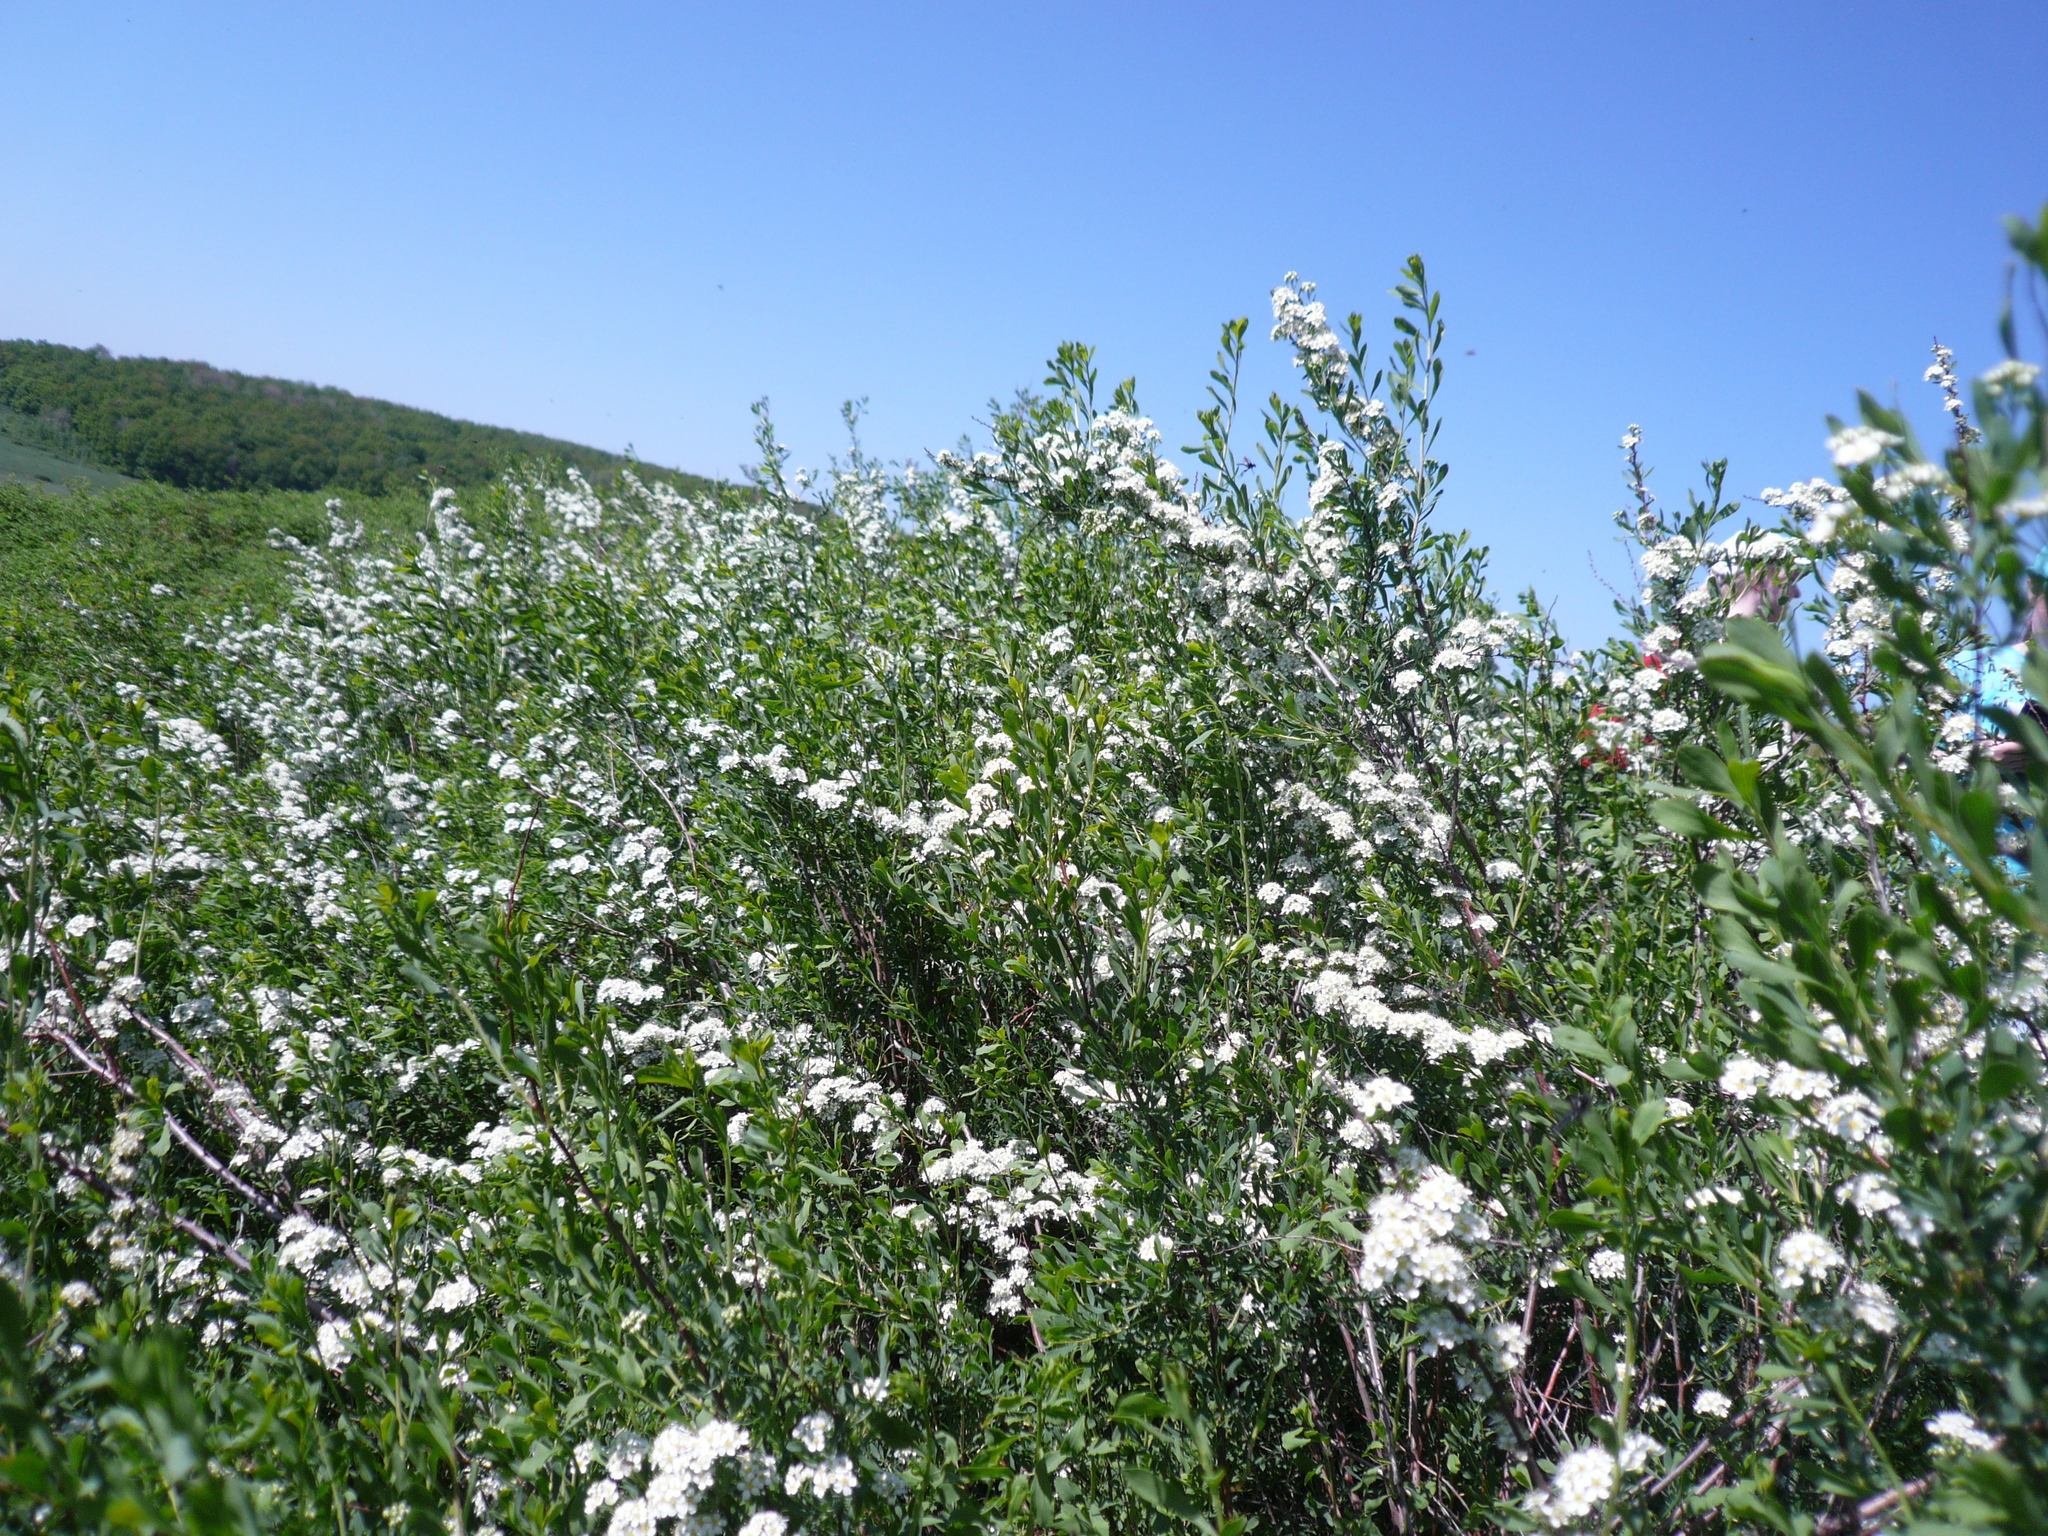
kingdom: Plantae
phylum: Tracheophyta
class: Magnoliopsida
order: Rosales
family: Rosaceae
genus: Spiraea
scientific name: Spiraea crenata
